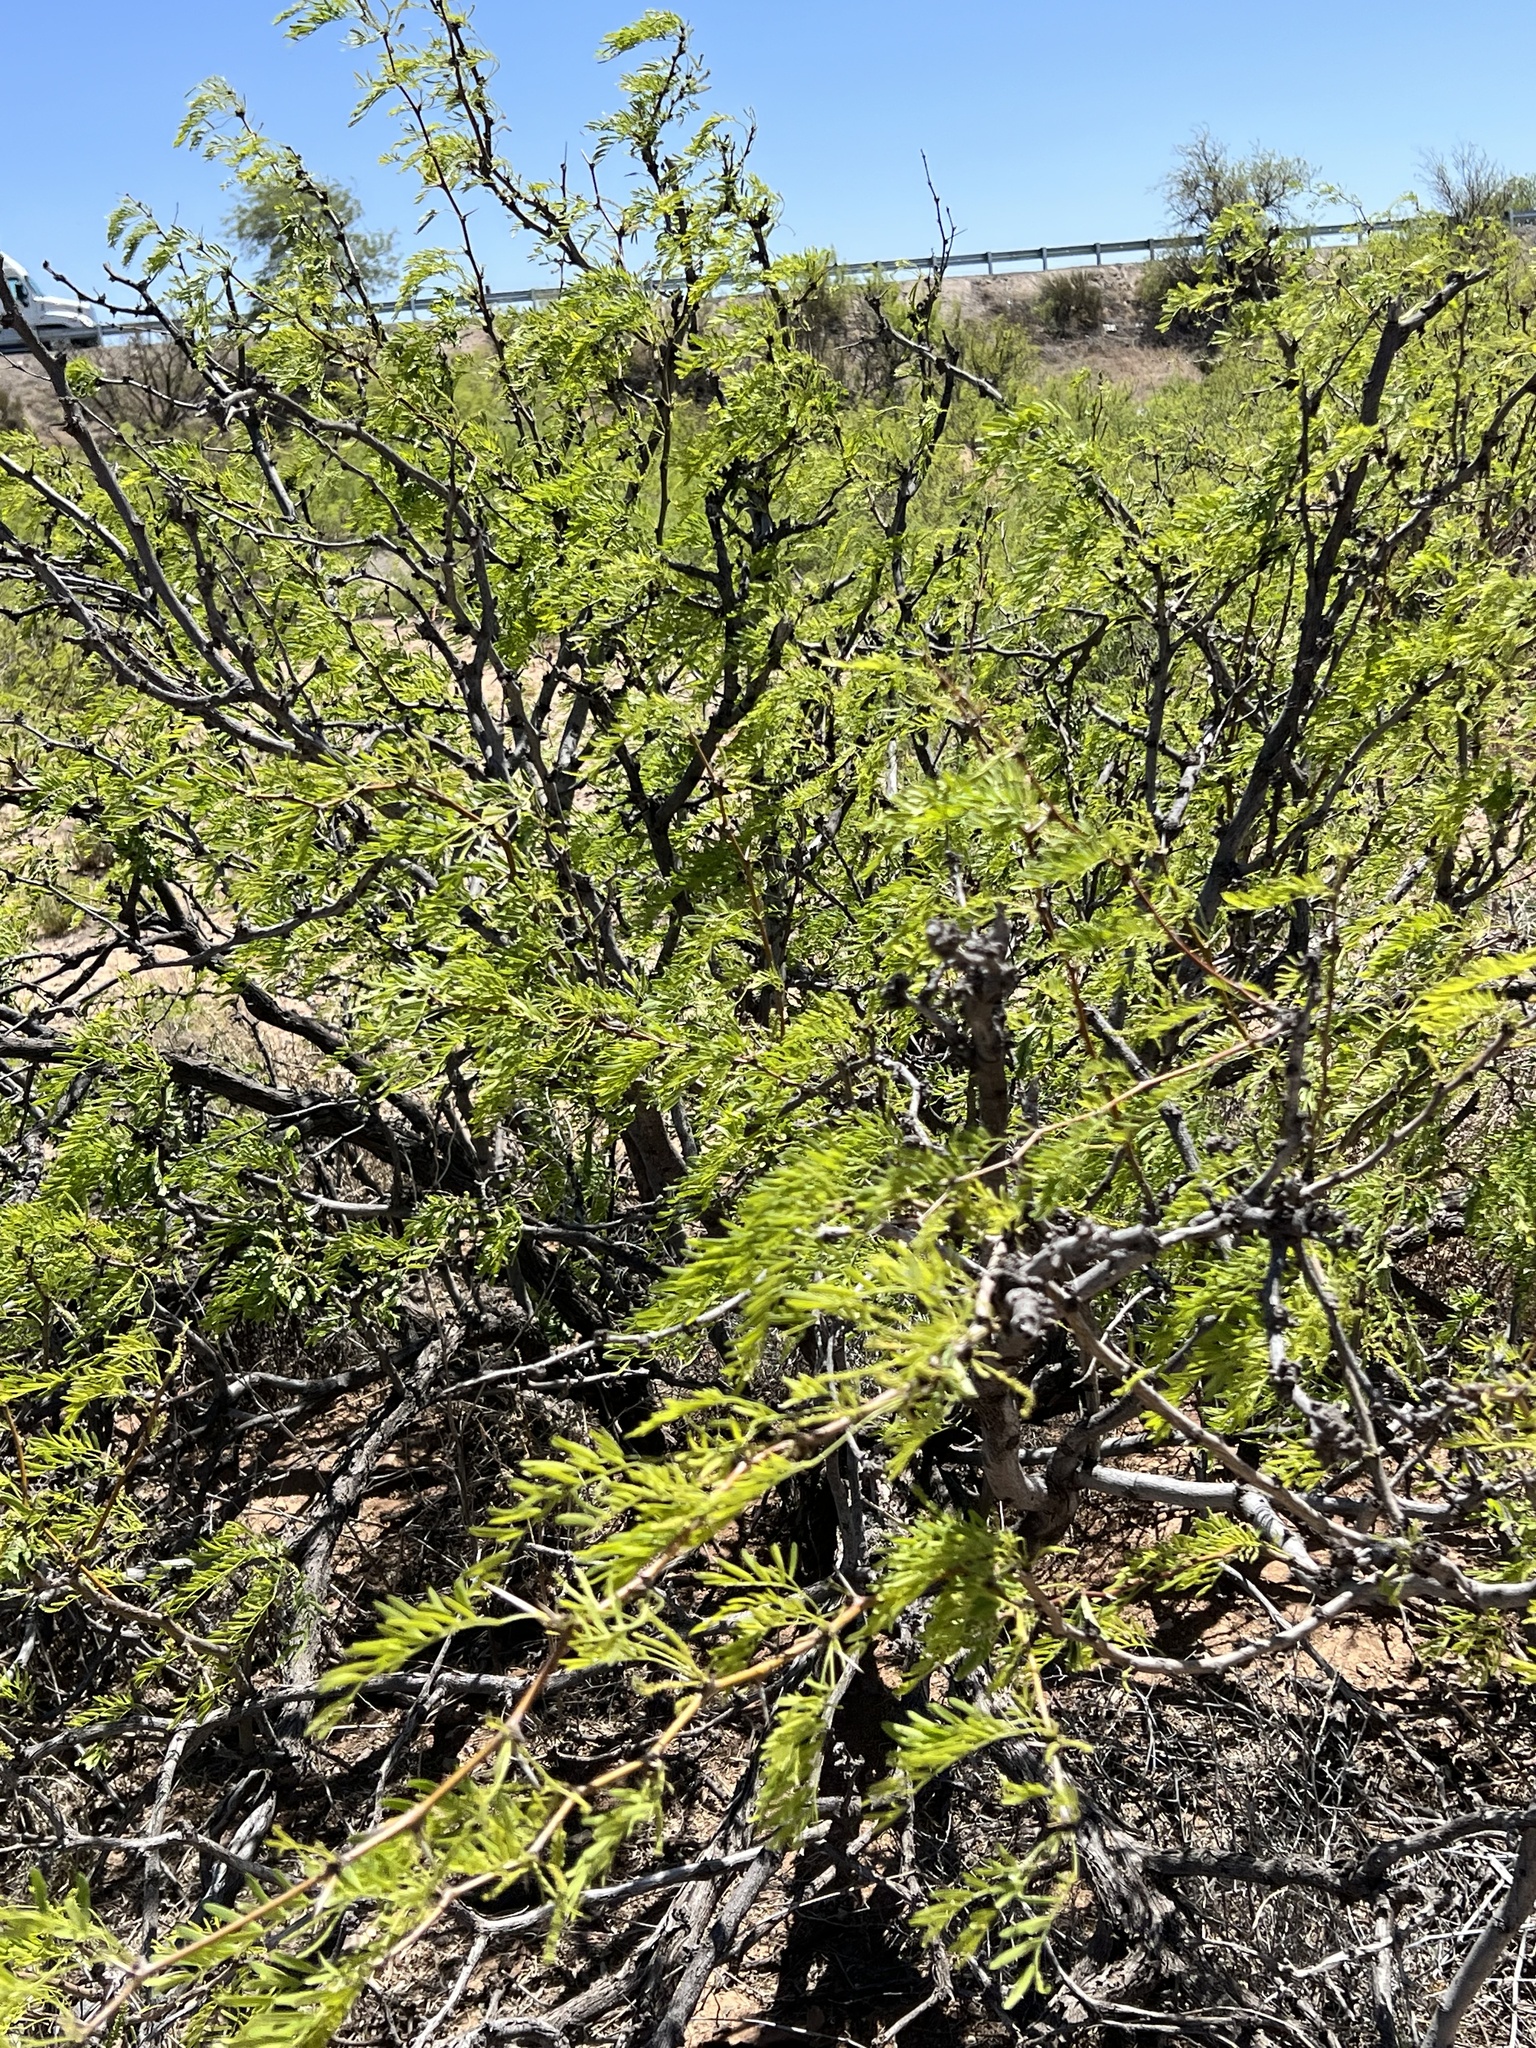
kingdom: Plantae
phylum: Tracheophyta
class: Magnoliopsida
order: Fabales
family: Fabaceae
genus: Prosopis
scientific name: Prosopis glandulosa
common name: Honey mesquite
